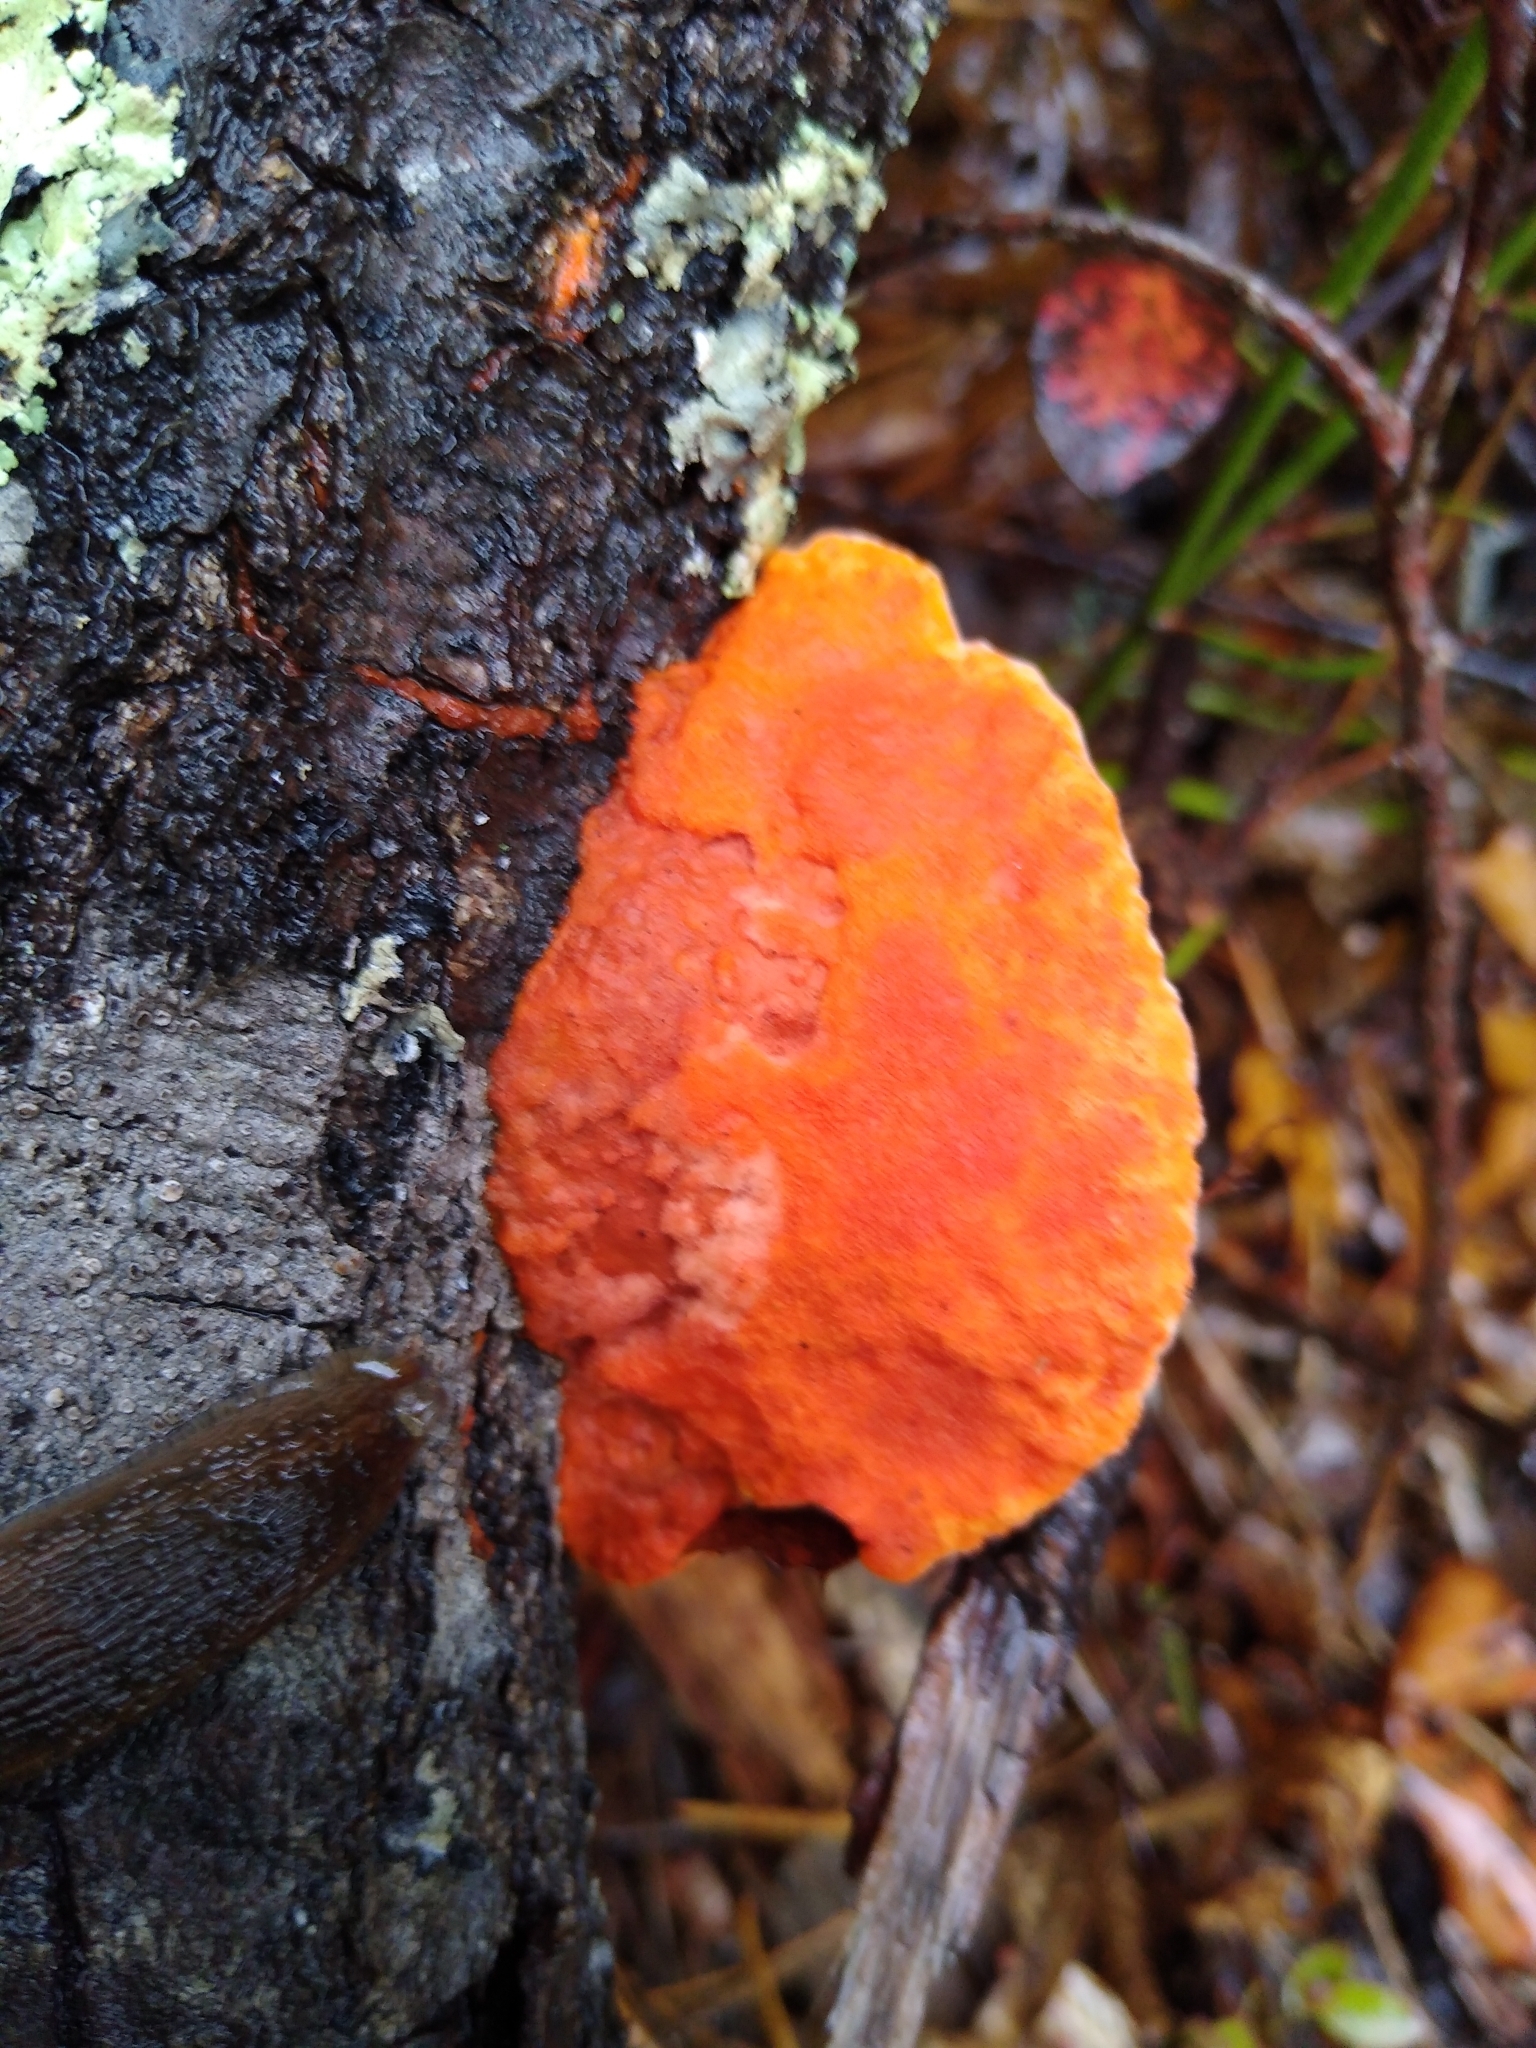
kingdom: Fungi
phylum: Basidiomycota
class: Agaricomycetes
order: Polyporales
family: Polyporaceae
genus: Trametes
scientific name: Trametes cinnabarina
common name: Northern cinnabar polypore
